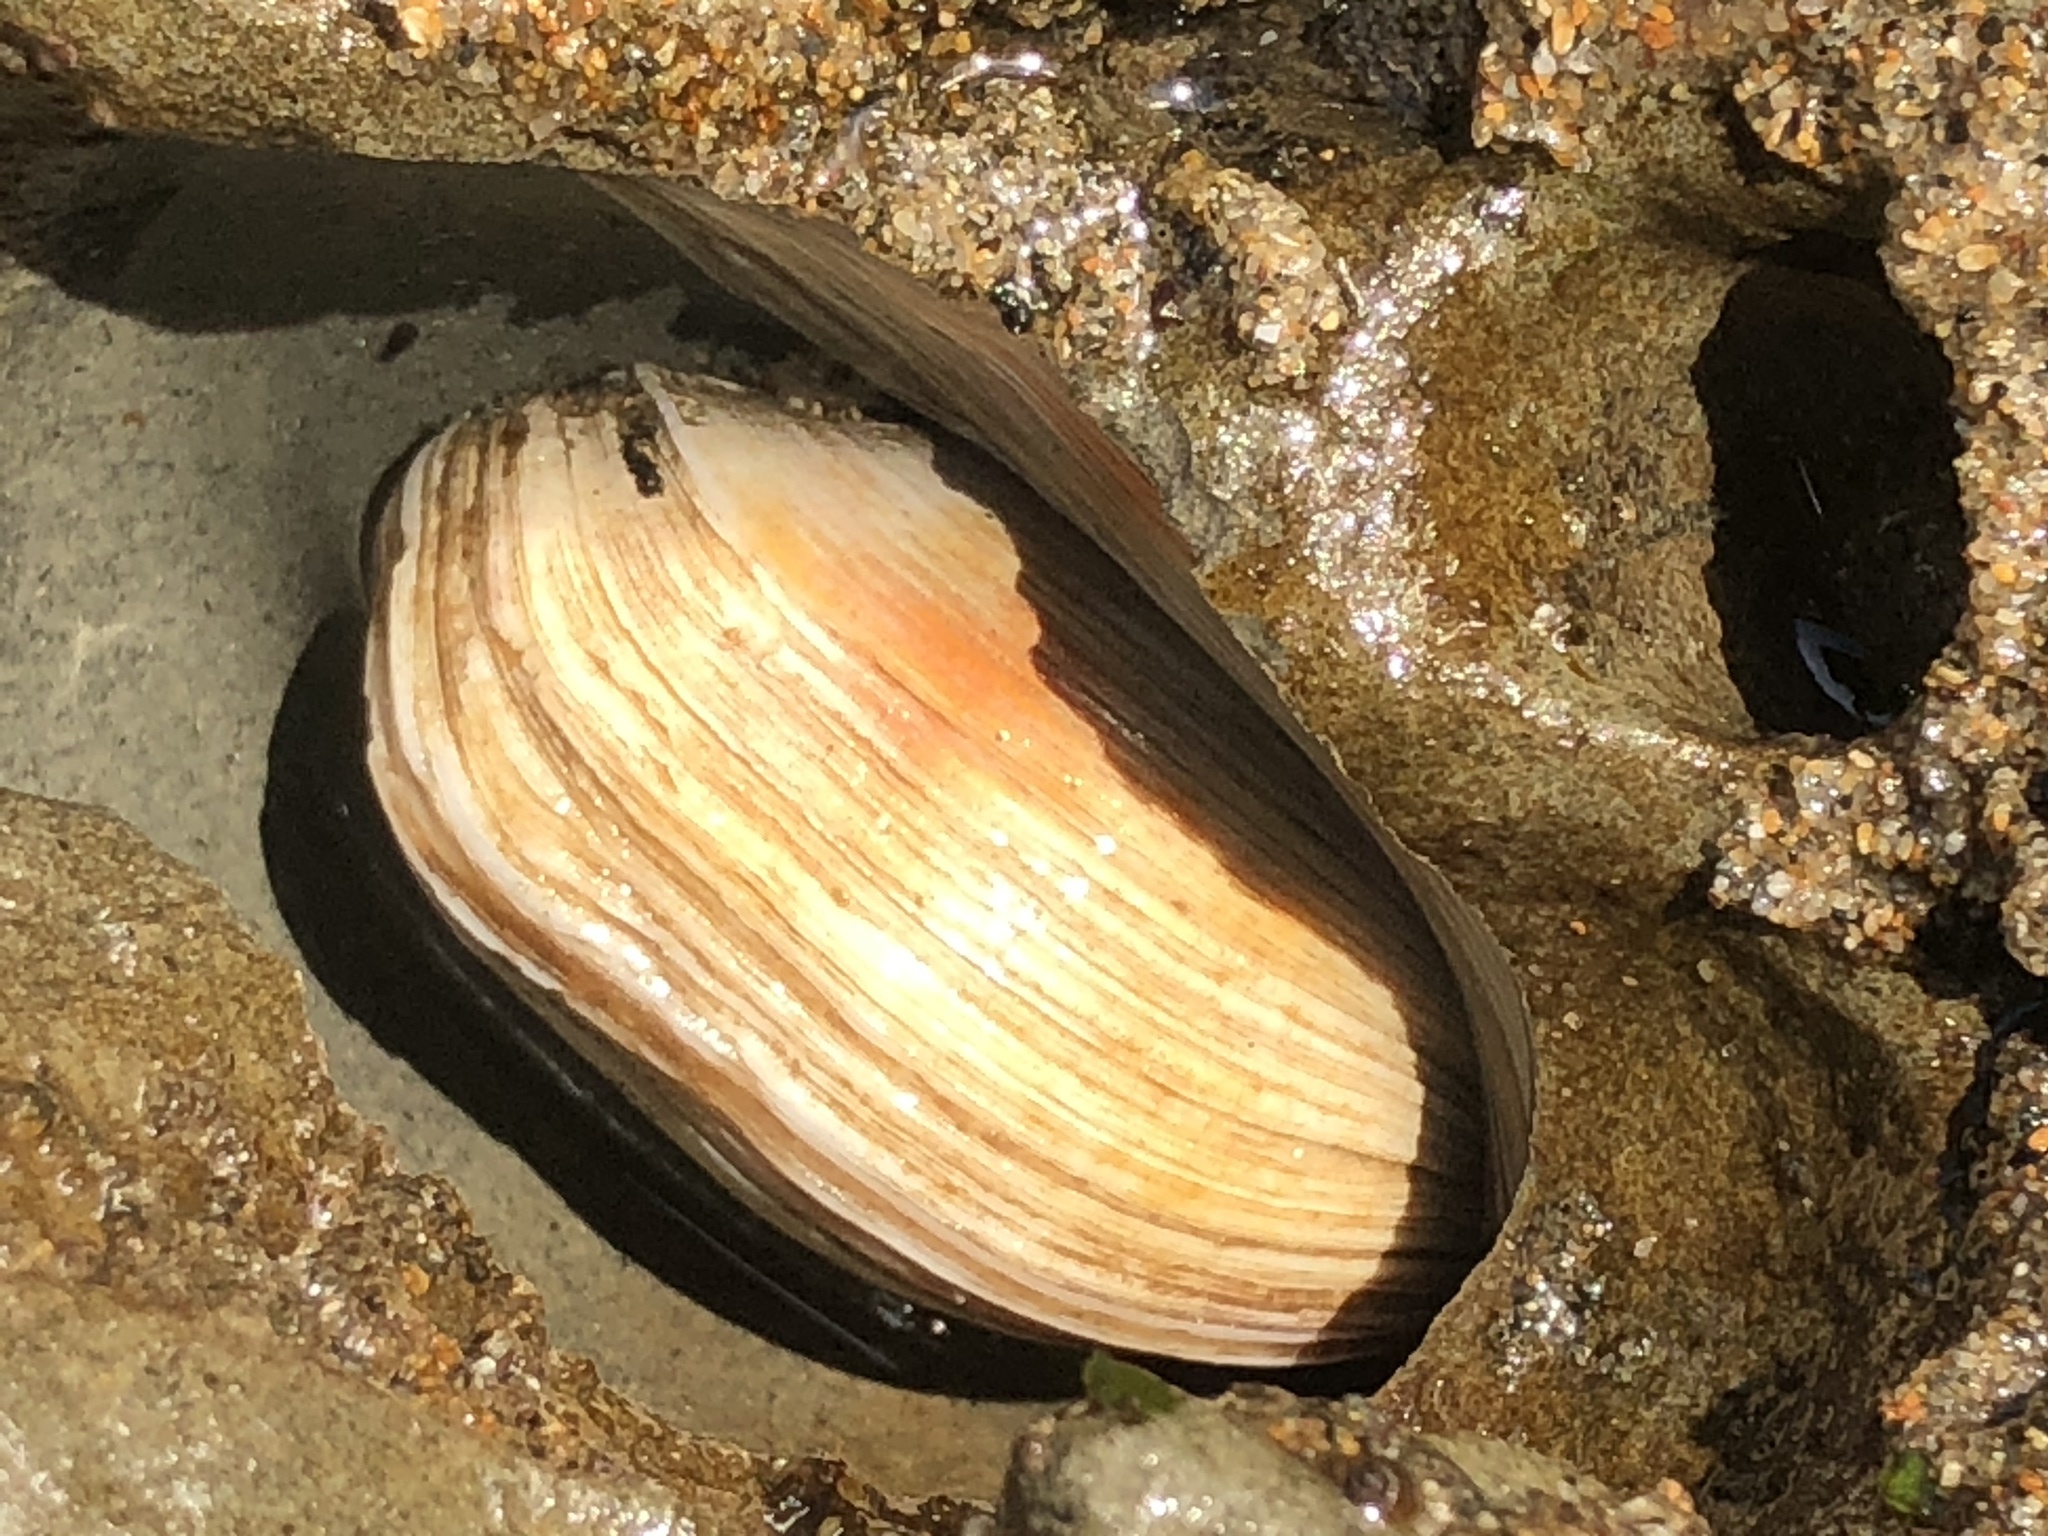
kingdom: Animalia
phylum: Mollusca
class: Bivalvia
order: Venerida
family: Veneridae
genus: Petricola
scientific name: Petricola carditoides
